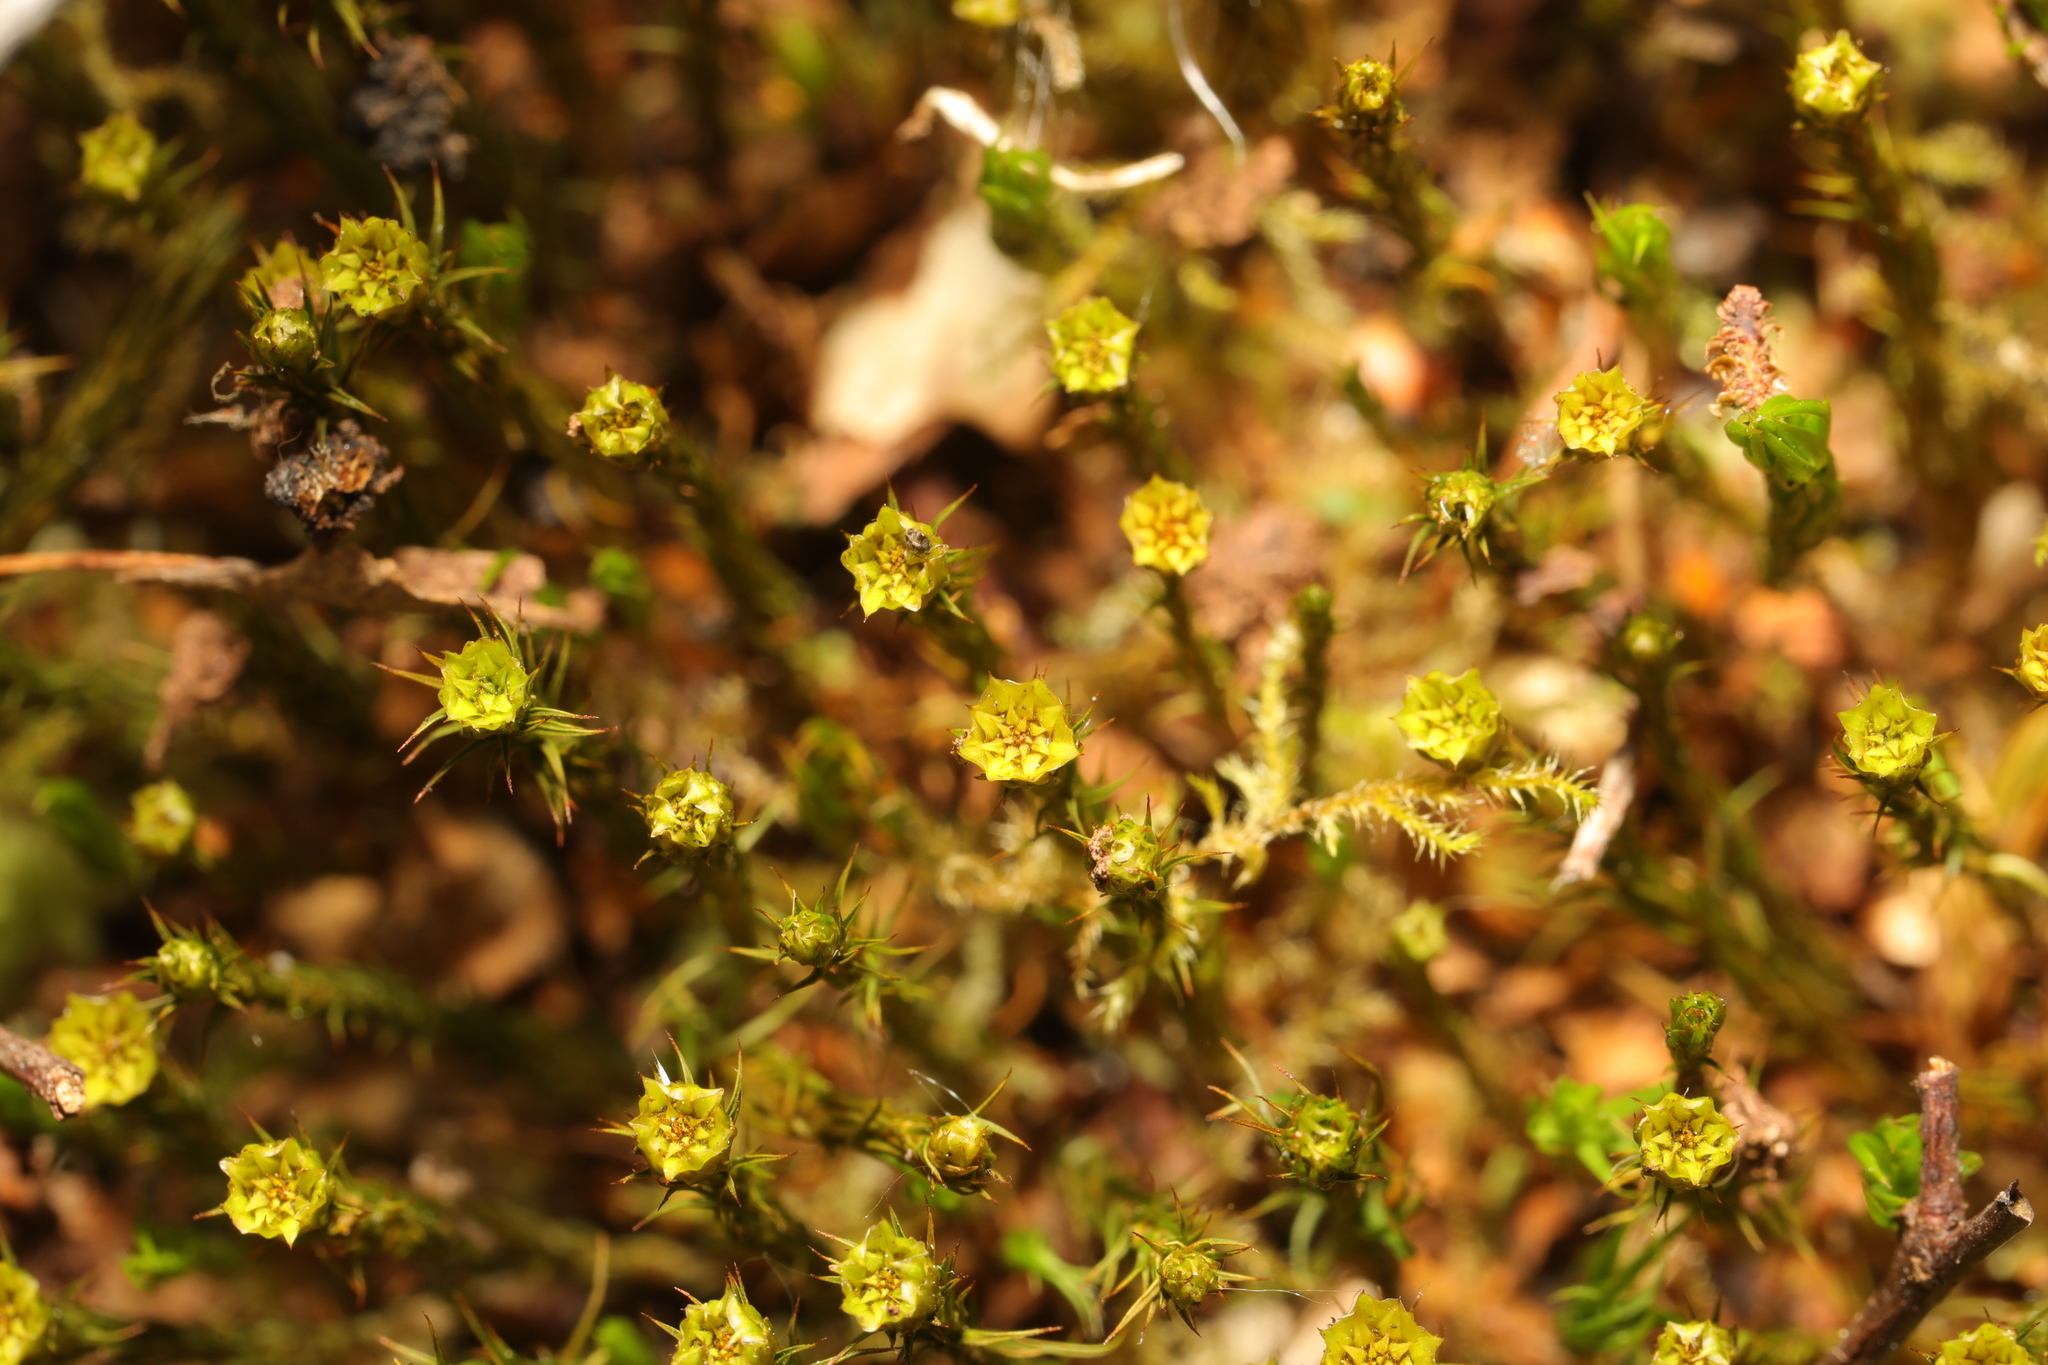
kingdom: Plantae
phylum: Bryophyta
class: Polytrichopsida
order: Polytrichales
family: Polytrichaceae
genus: Polytrichum
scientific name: Polytrichum formosum
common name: Bank haircap moss
